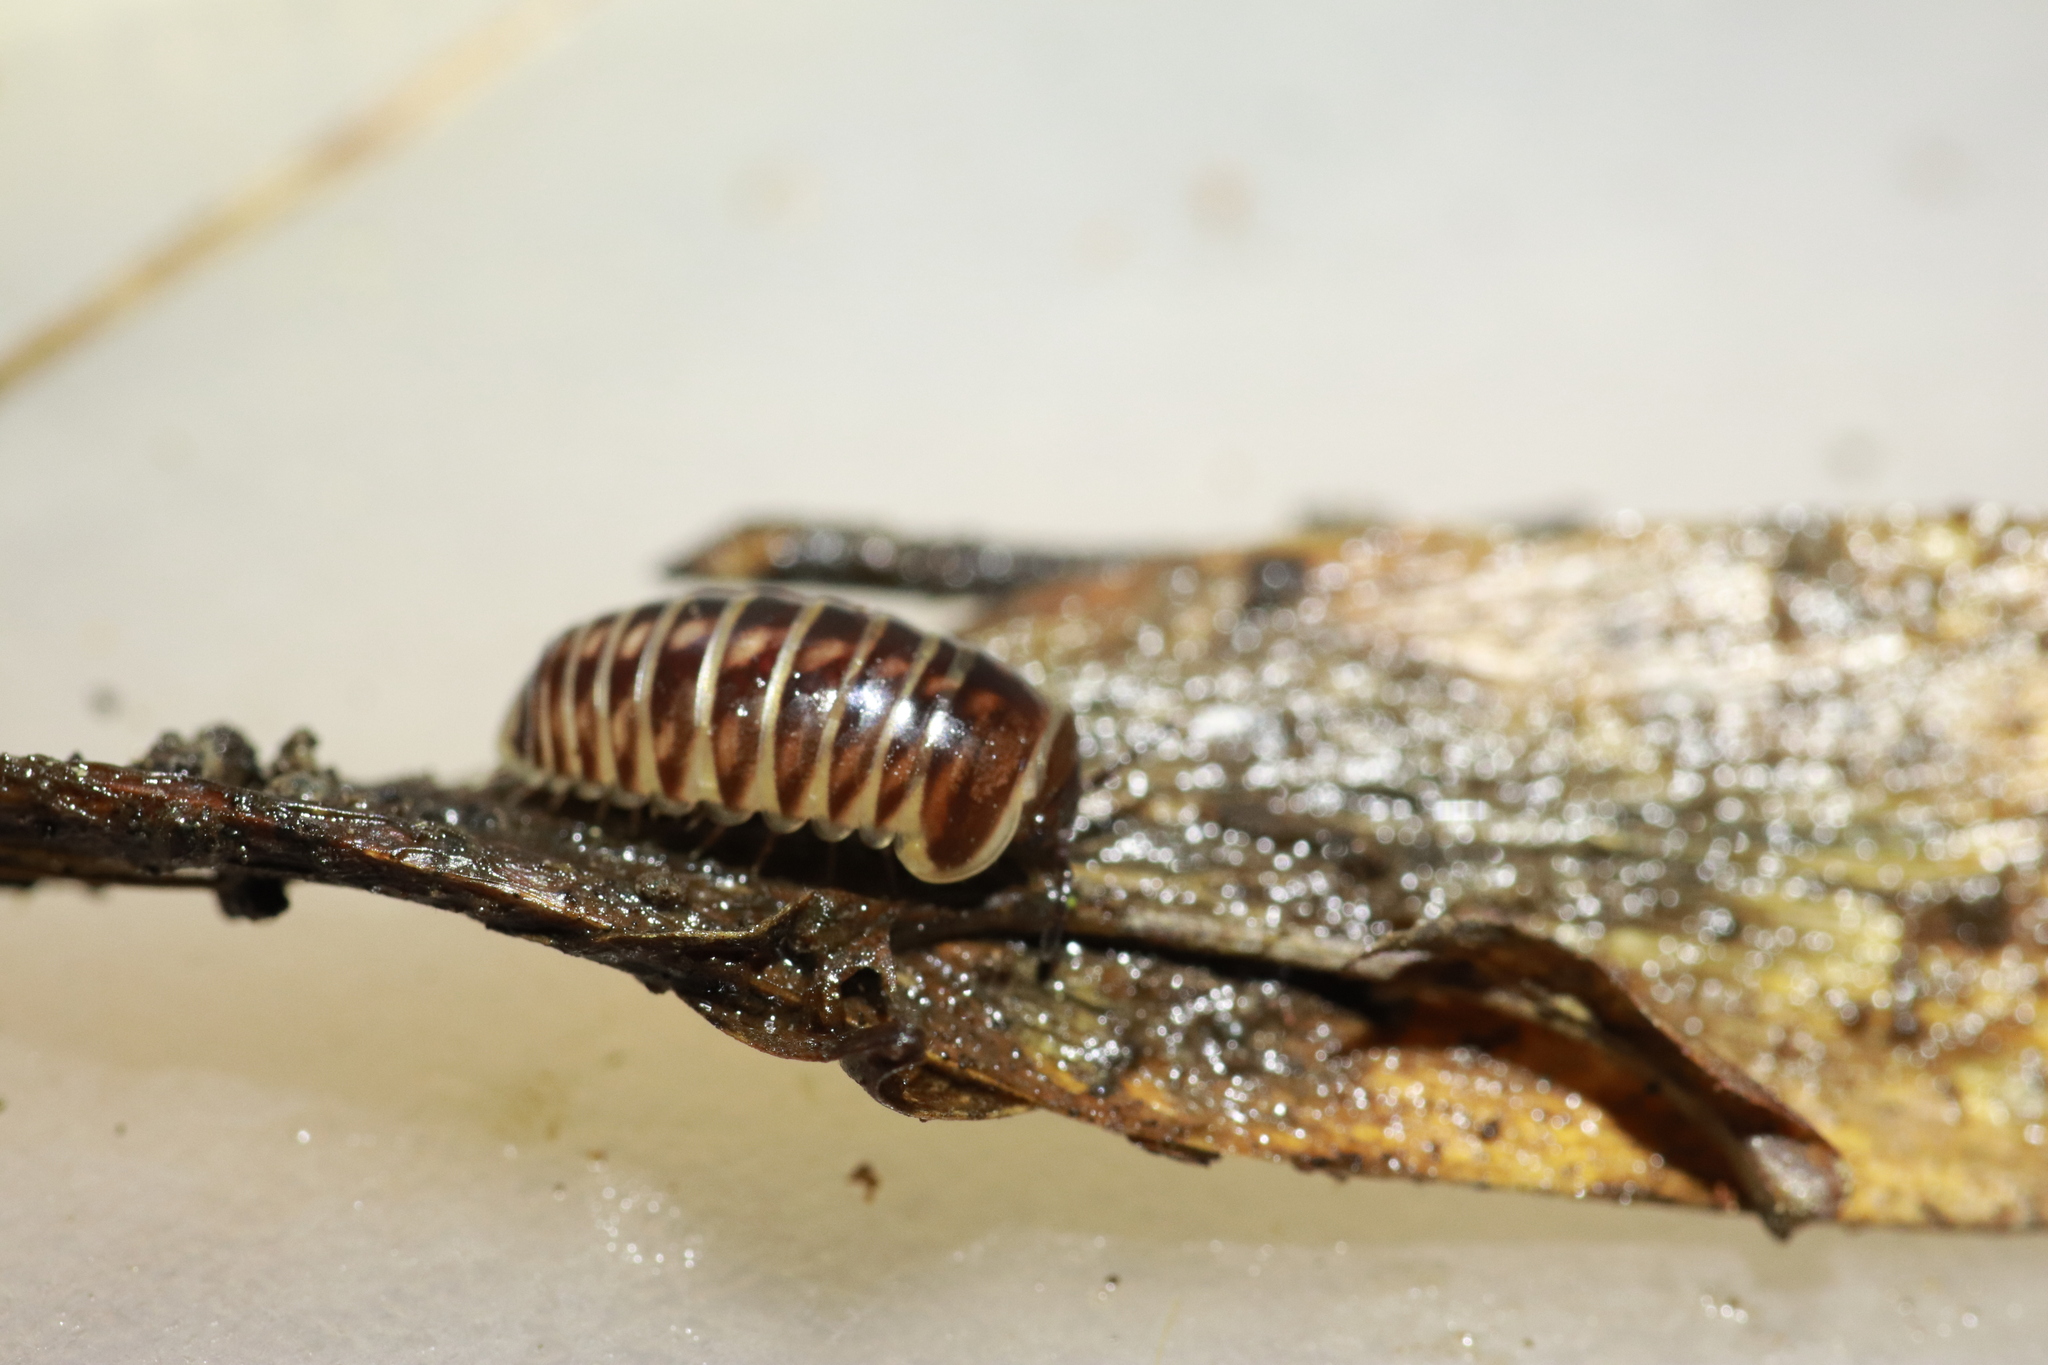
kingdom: Animalia
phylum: Arthropoda
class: Diplopoda
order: Glomerida
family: Glomeridae
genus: Glomeris
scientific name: Glomeris marginata
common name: Bordered pill millipede
